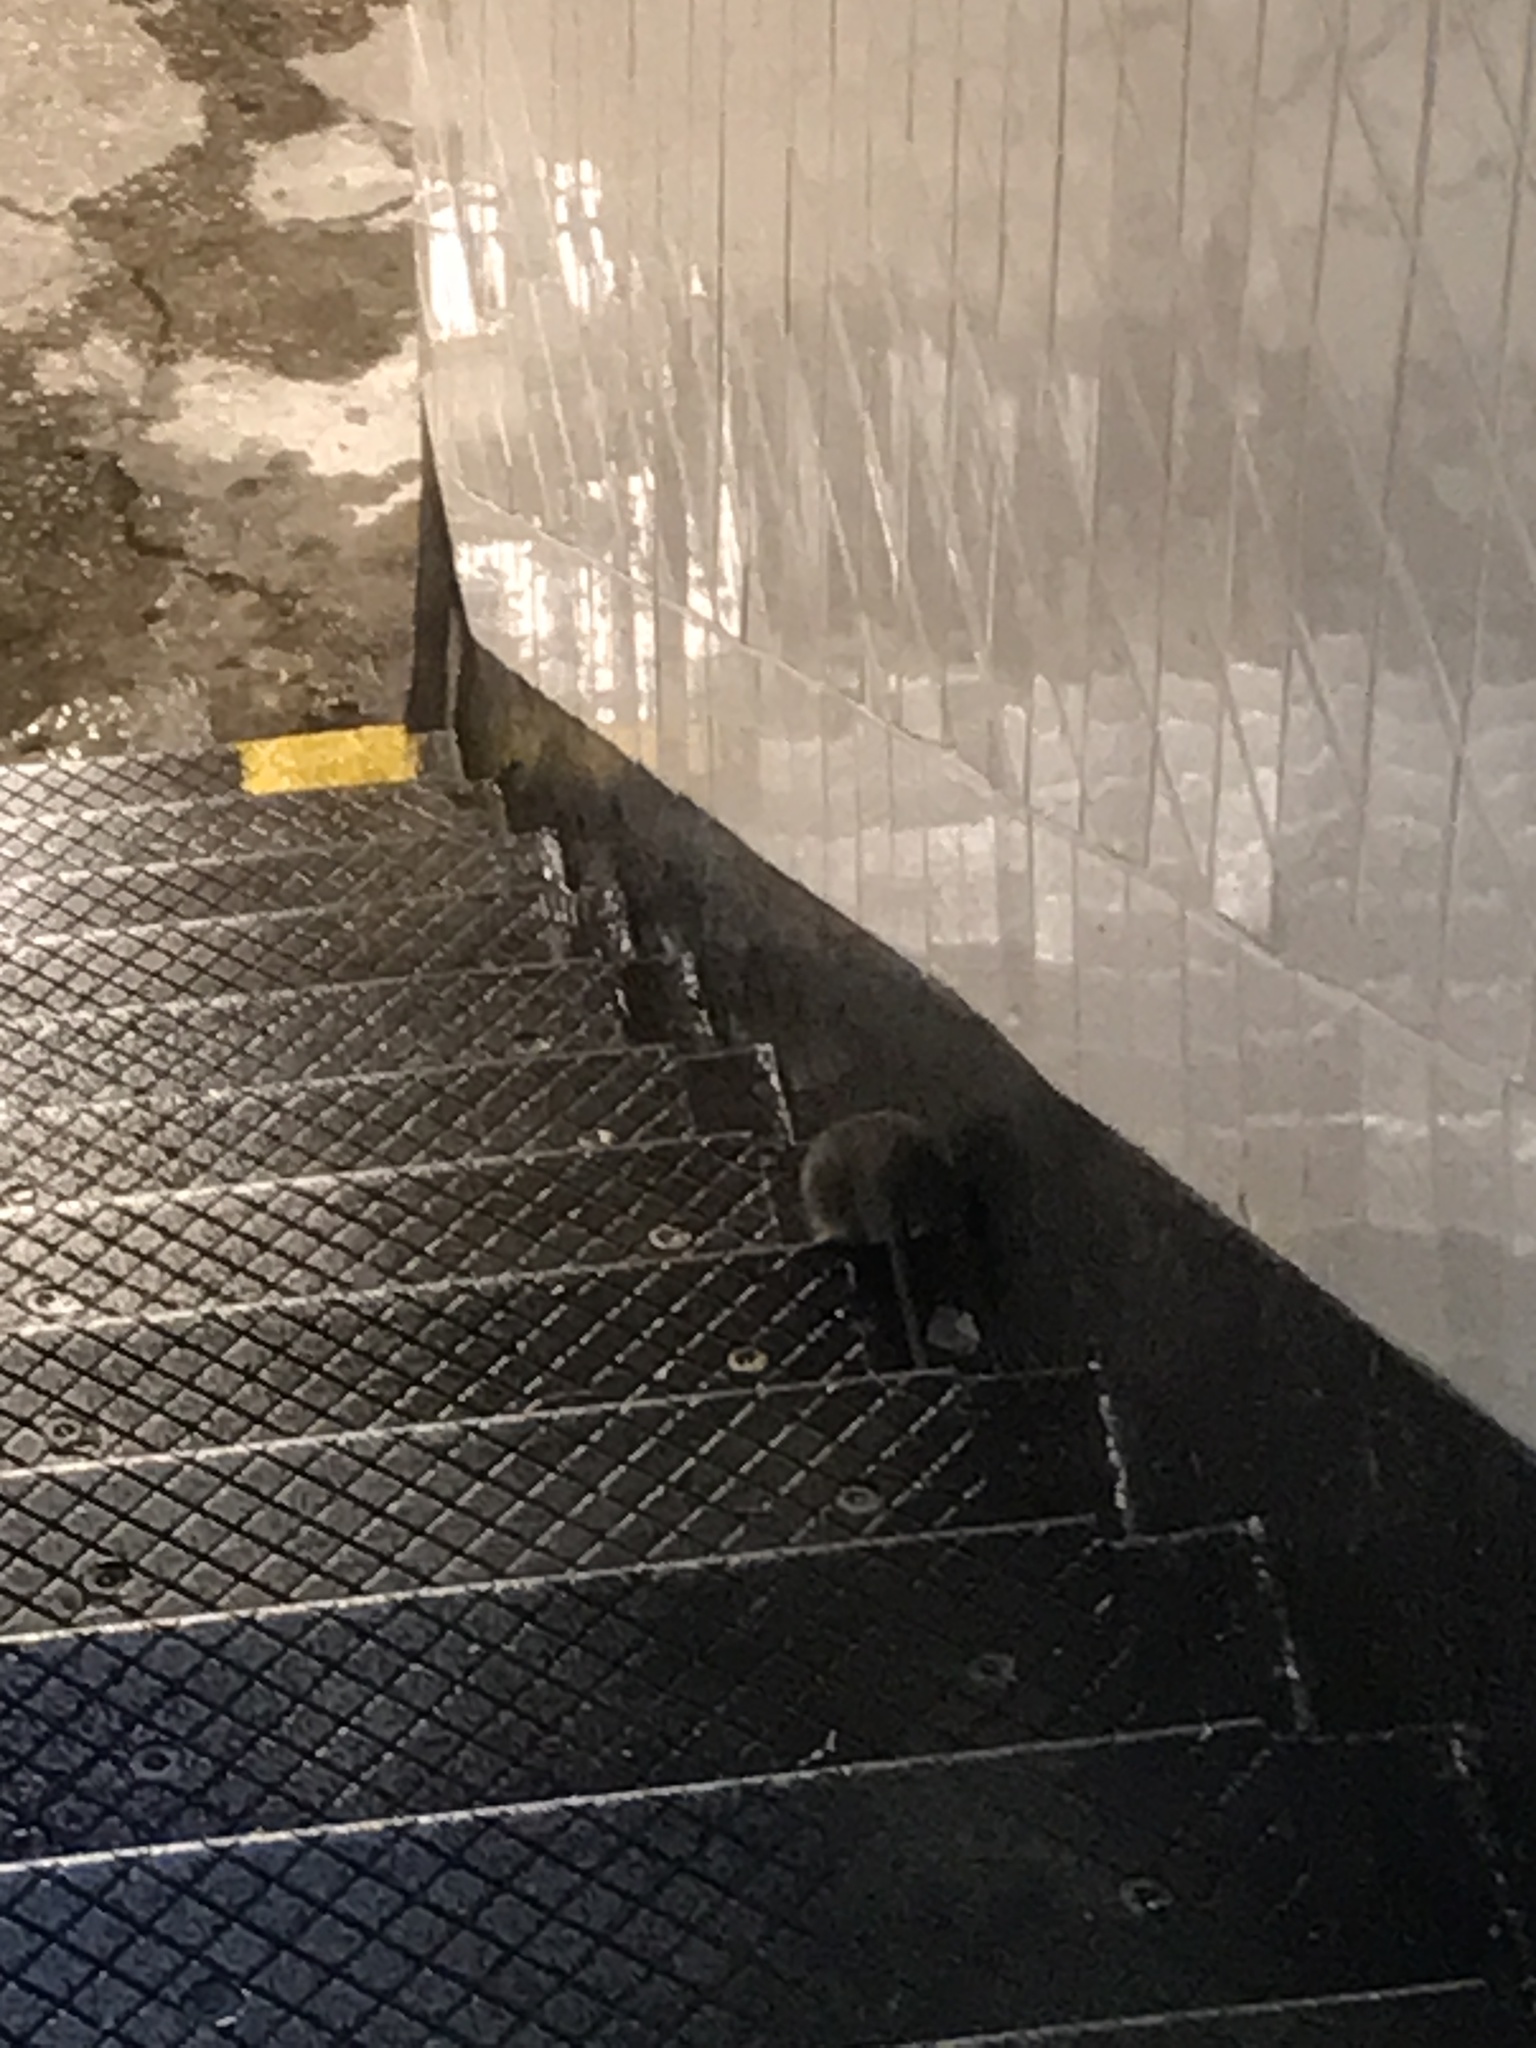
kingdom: Animalia
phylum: Chordata
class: Mammalia
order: Rodentia
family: Muridae
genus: Rattus
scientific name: Rattus norvegicus
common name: Brown rat
